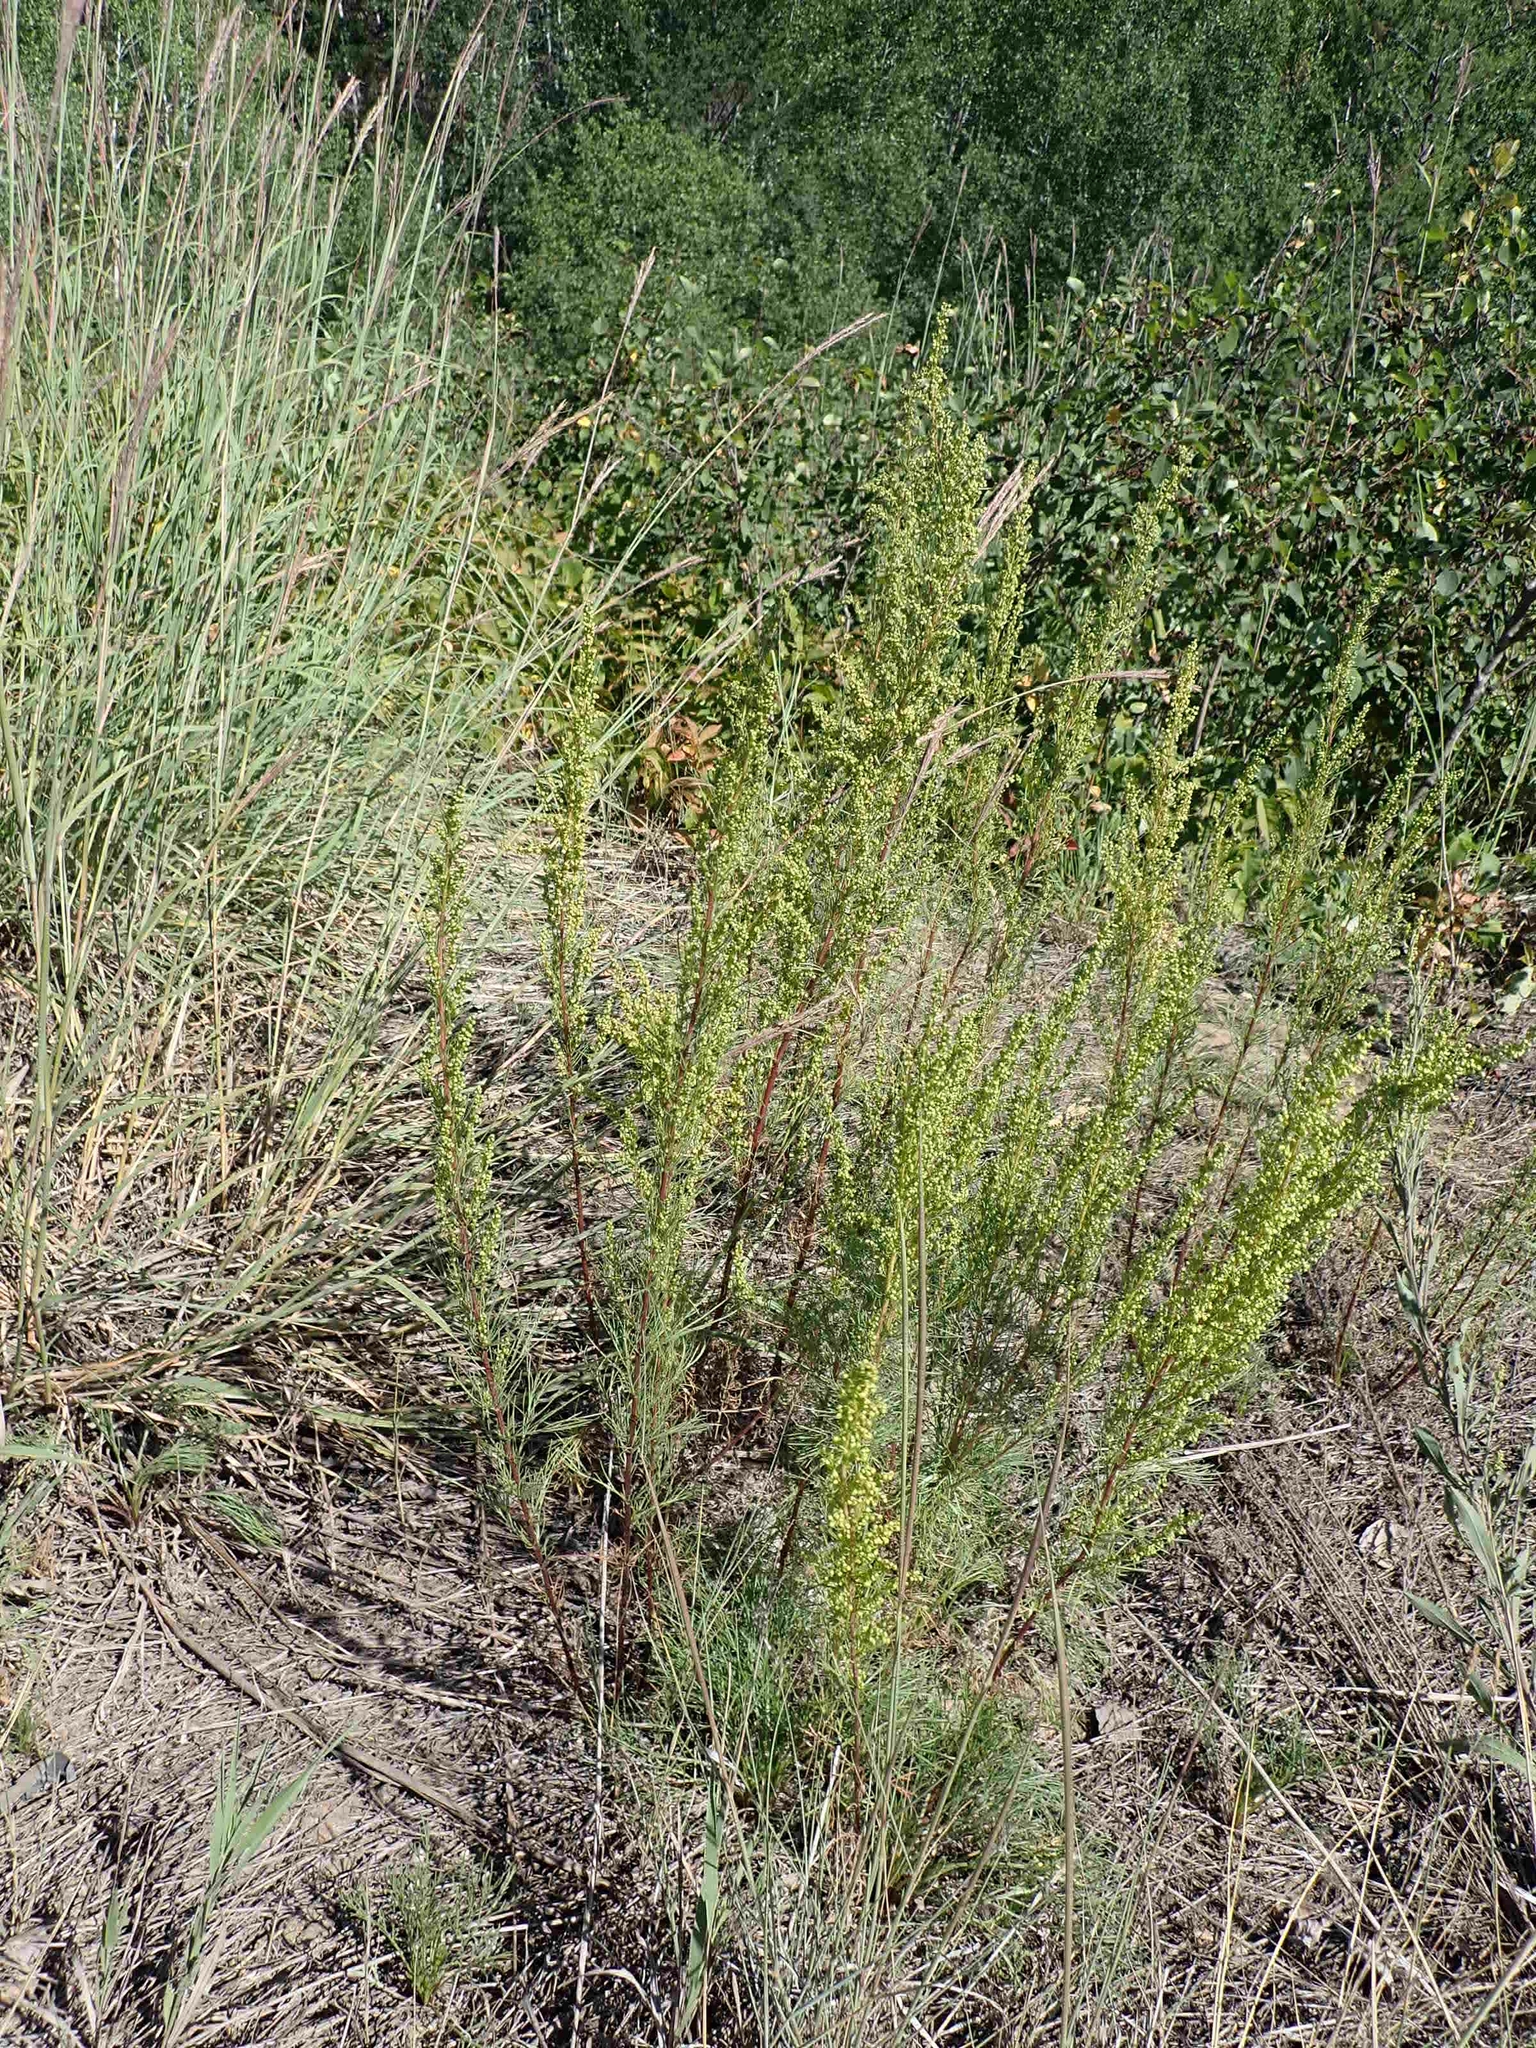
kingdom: Plantae
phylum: Tracheophyta
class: Magnoliopsida
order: Asterales
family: Asteraceae
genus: Artemisia
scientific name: Artemisia campestris
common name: Field wormwood
